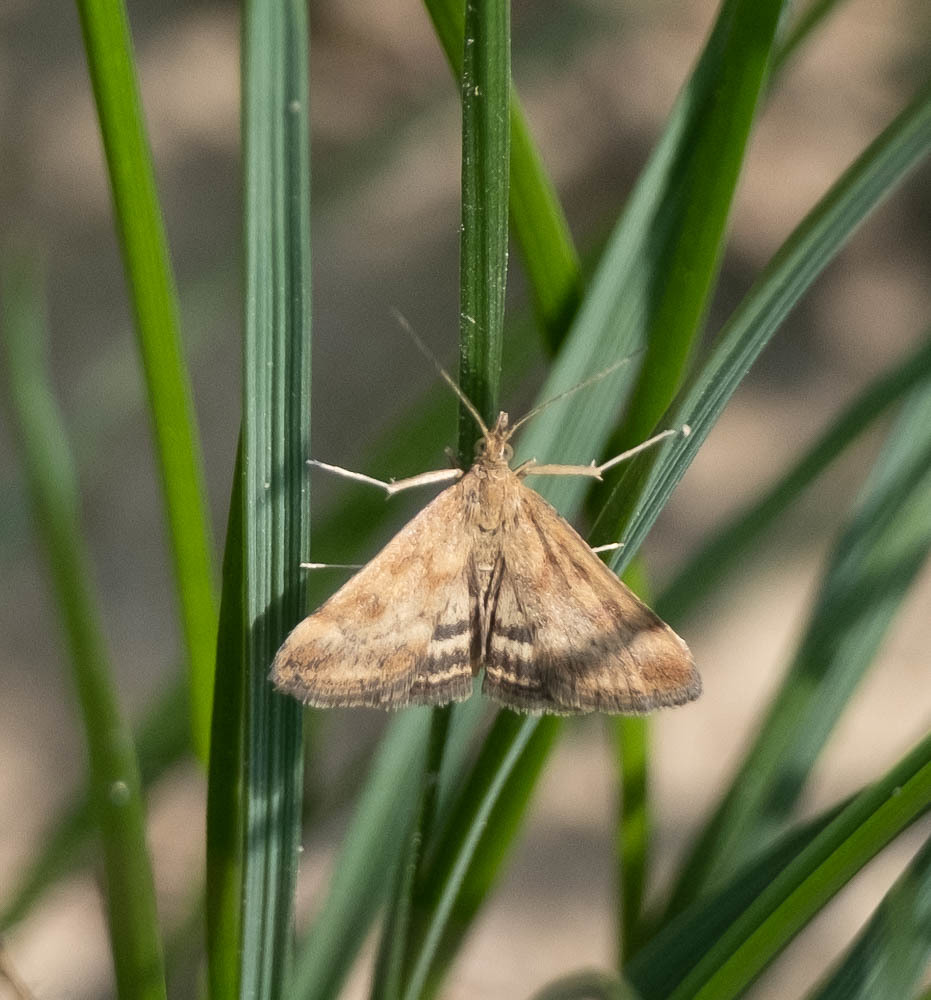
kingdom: Animalia
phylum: Arthropoda
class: Insecta
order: Lepidoptera
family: Crambidae
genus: Pyrausta
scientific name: Pyrausta despicata
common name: Straw-barred pearl
